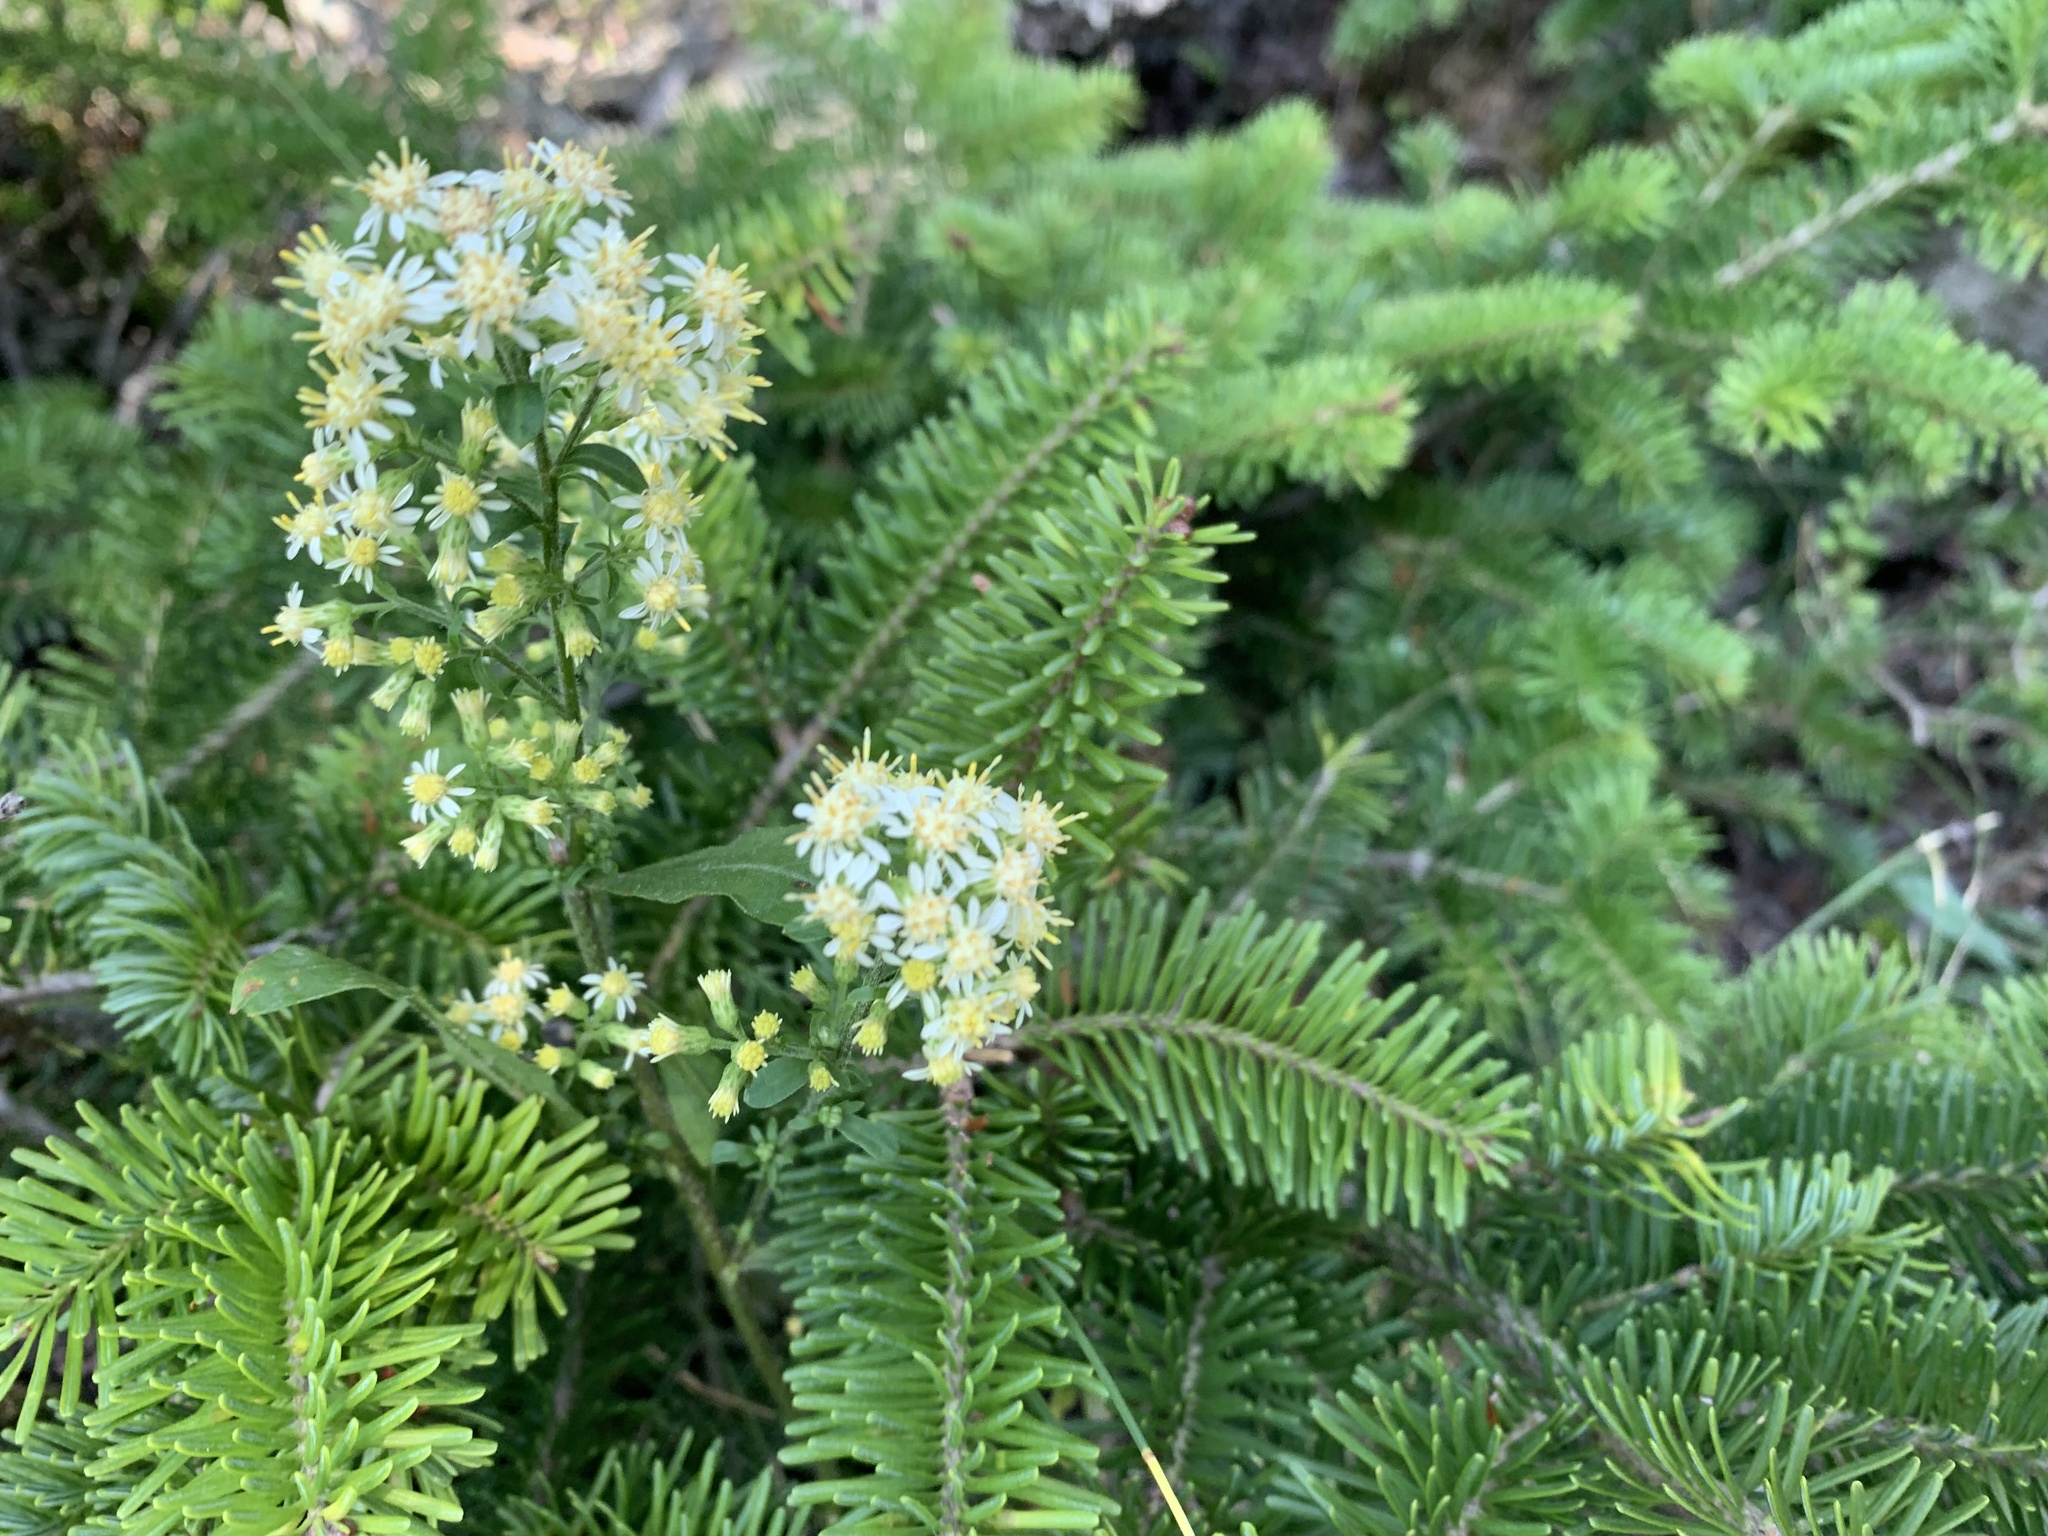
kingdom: Plantae
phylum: Tracheophyta
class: Magnoliopsida
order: Asterales
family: Asteraceae
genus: Solidago
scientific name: Solidago bicolor
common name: Silverrod
